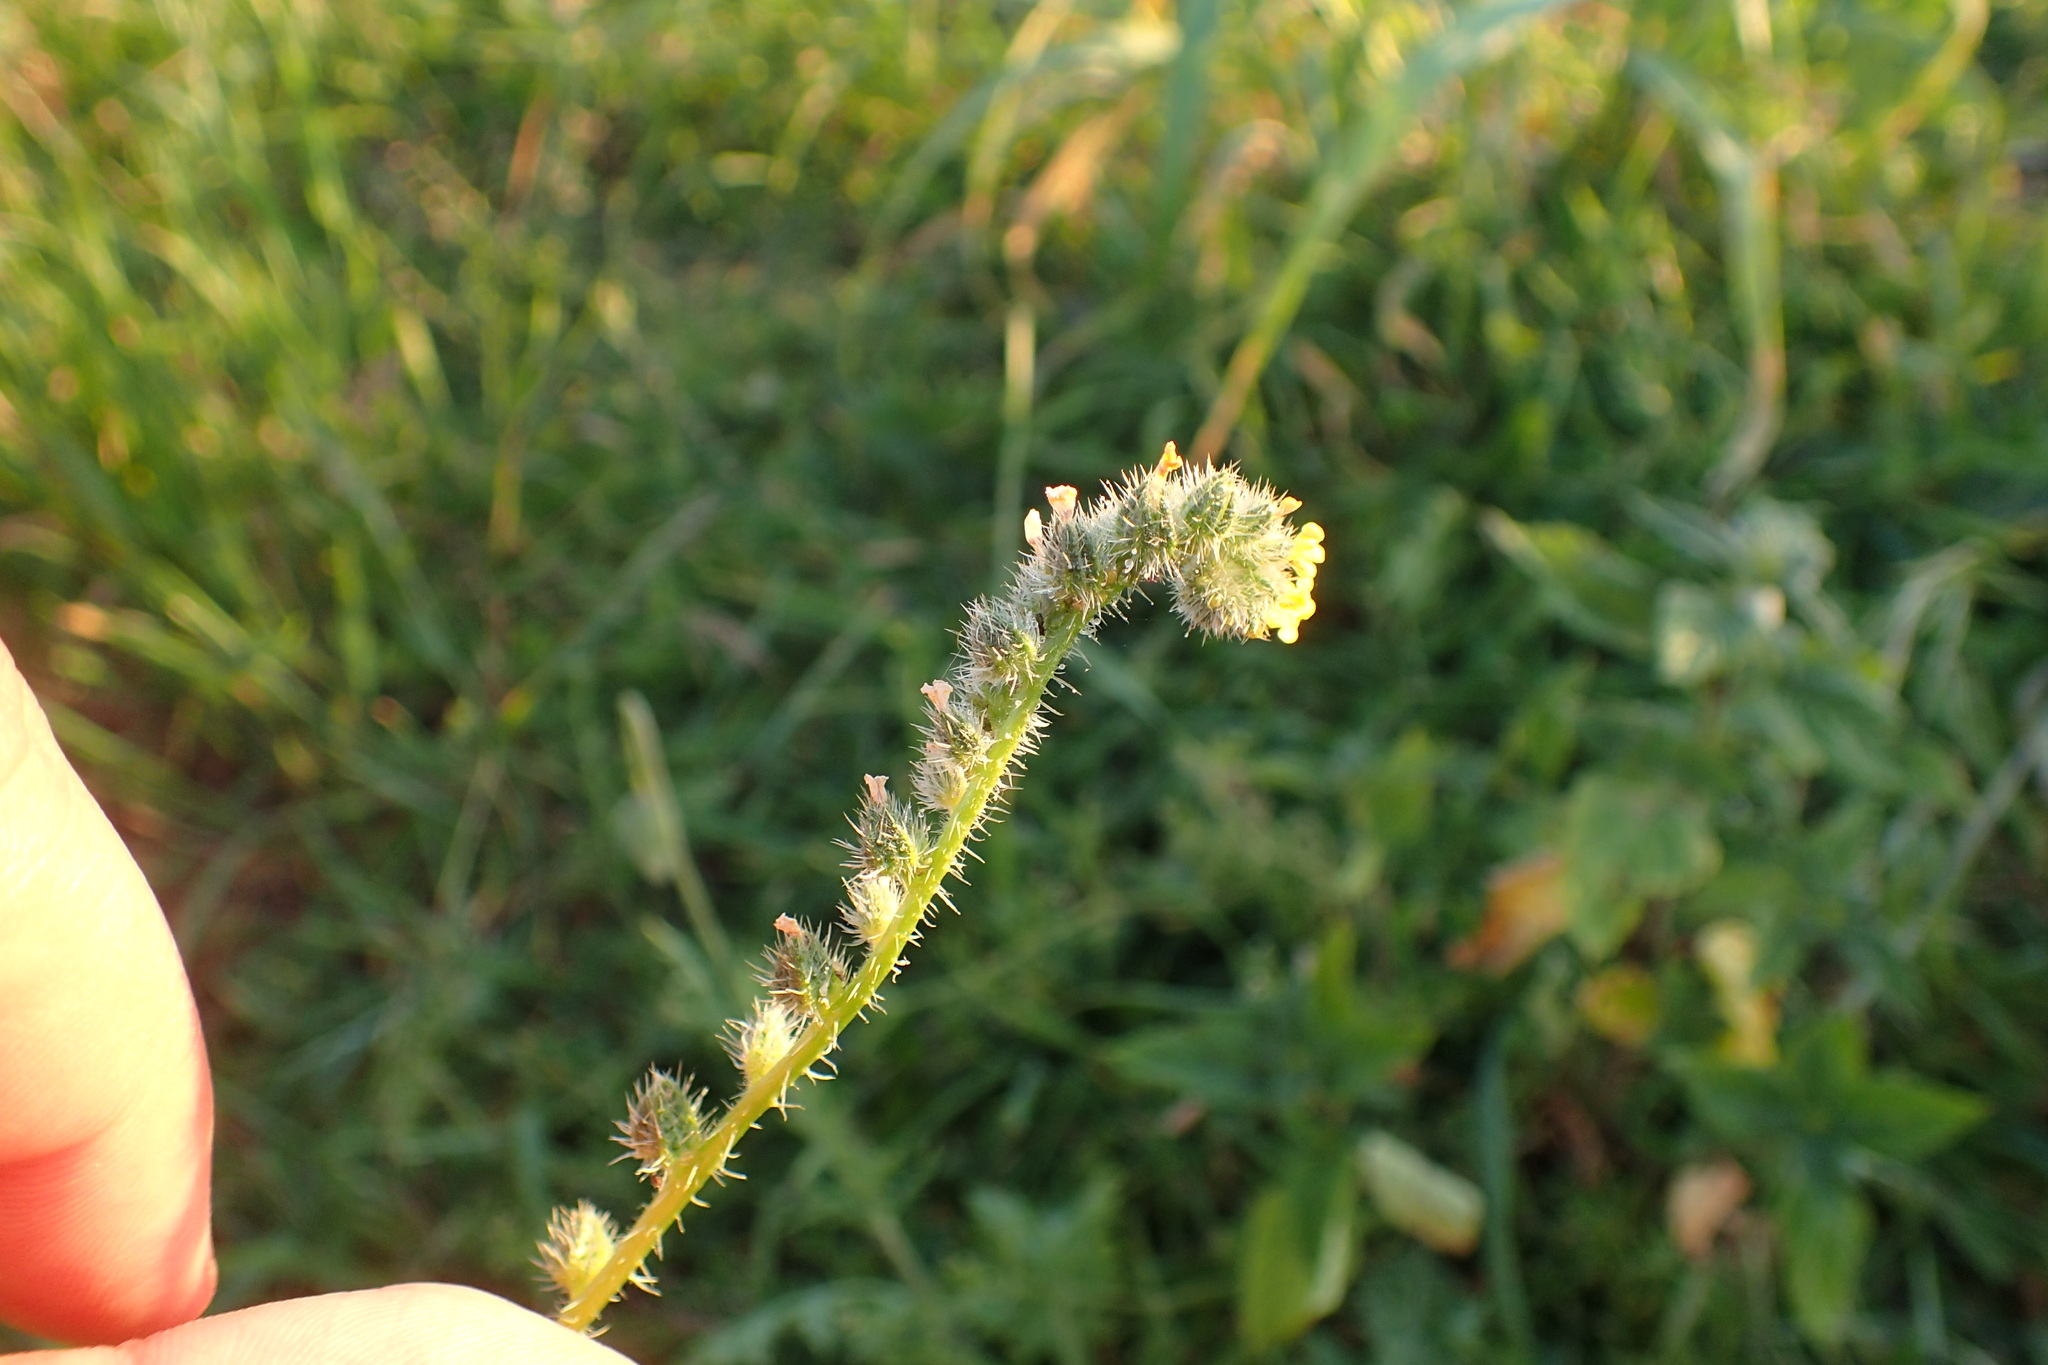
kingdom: Plantae
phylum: Tracheophyta
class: Magnoliopsida
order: Boraginales
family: Boraginaceae
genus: Amsinckia
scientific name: Amsinckia menziesii
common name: Menzies' fiddleneck
